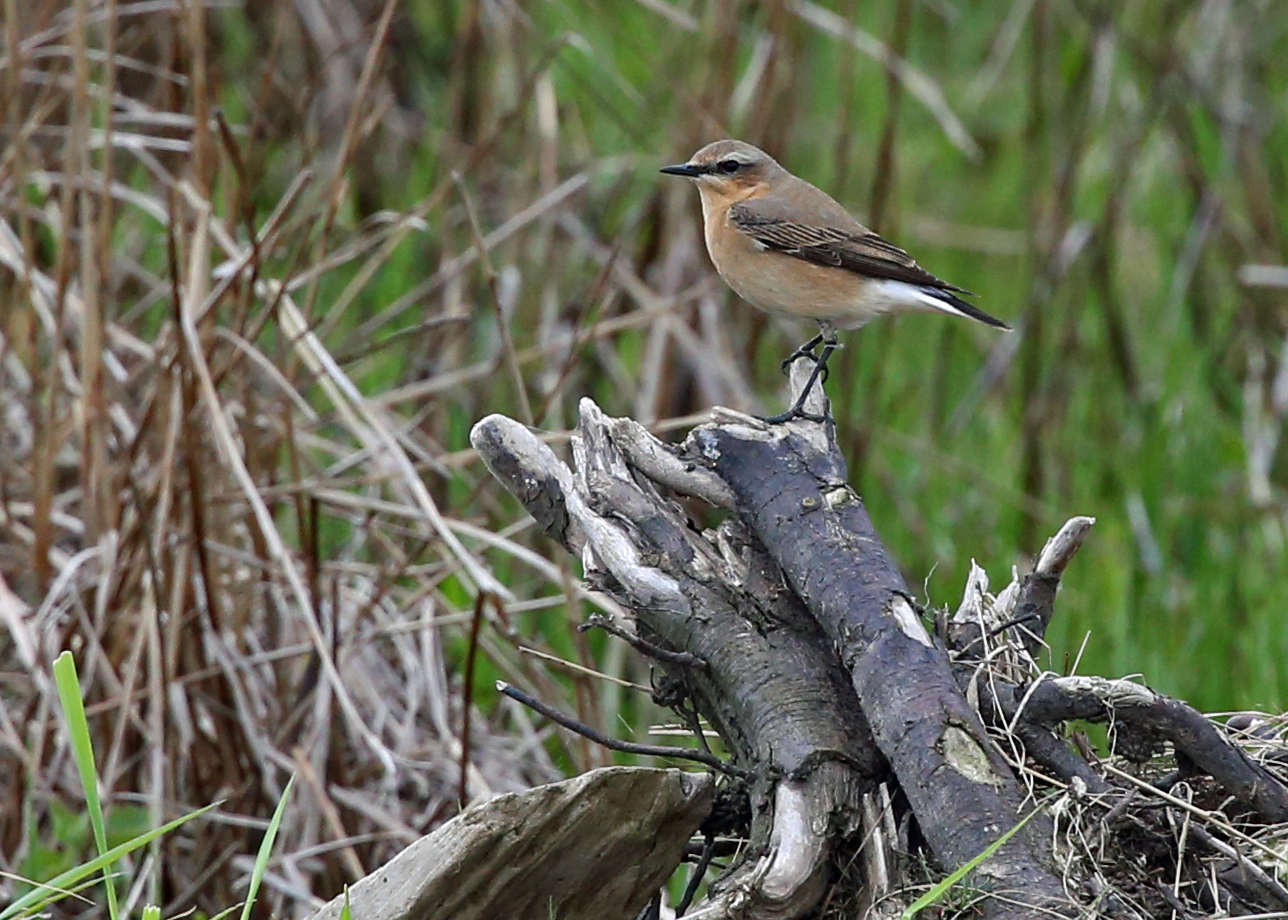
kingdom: Animalia
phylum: Chordata
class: Aves
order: Passeriformes
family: Muscicapidae
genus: Oenanthe
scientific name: Oenanthe oenanthe
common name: Northern wheatear
